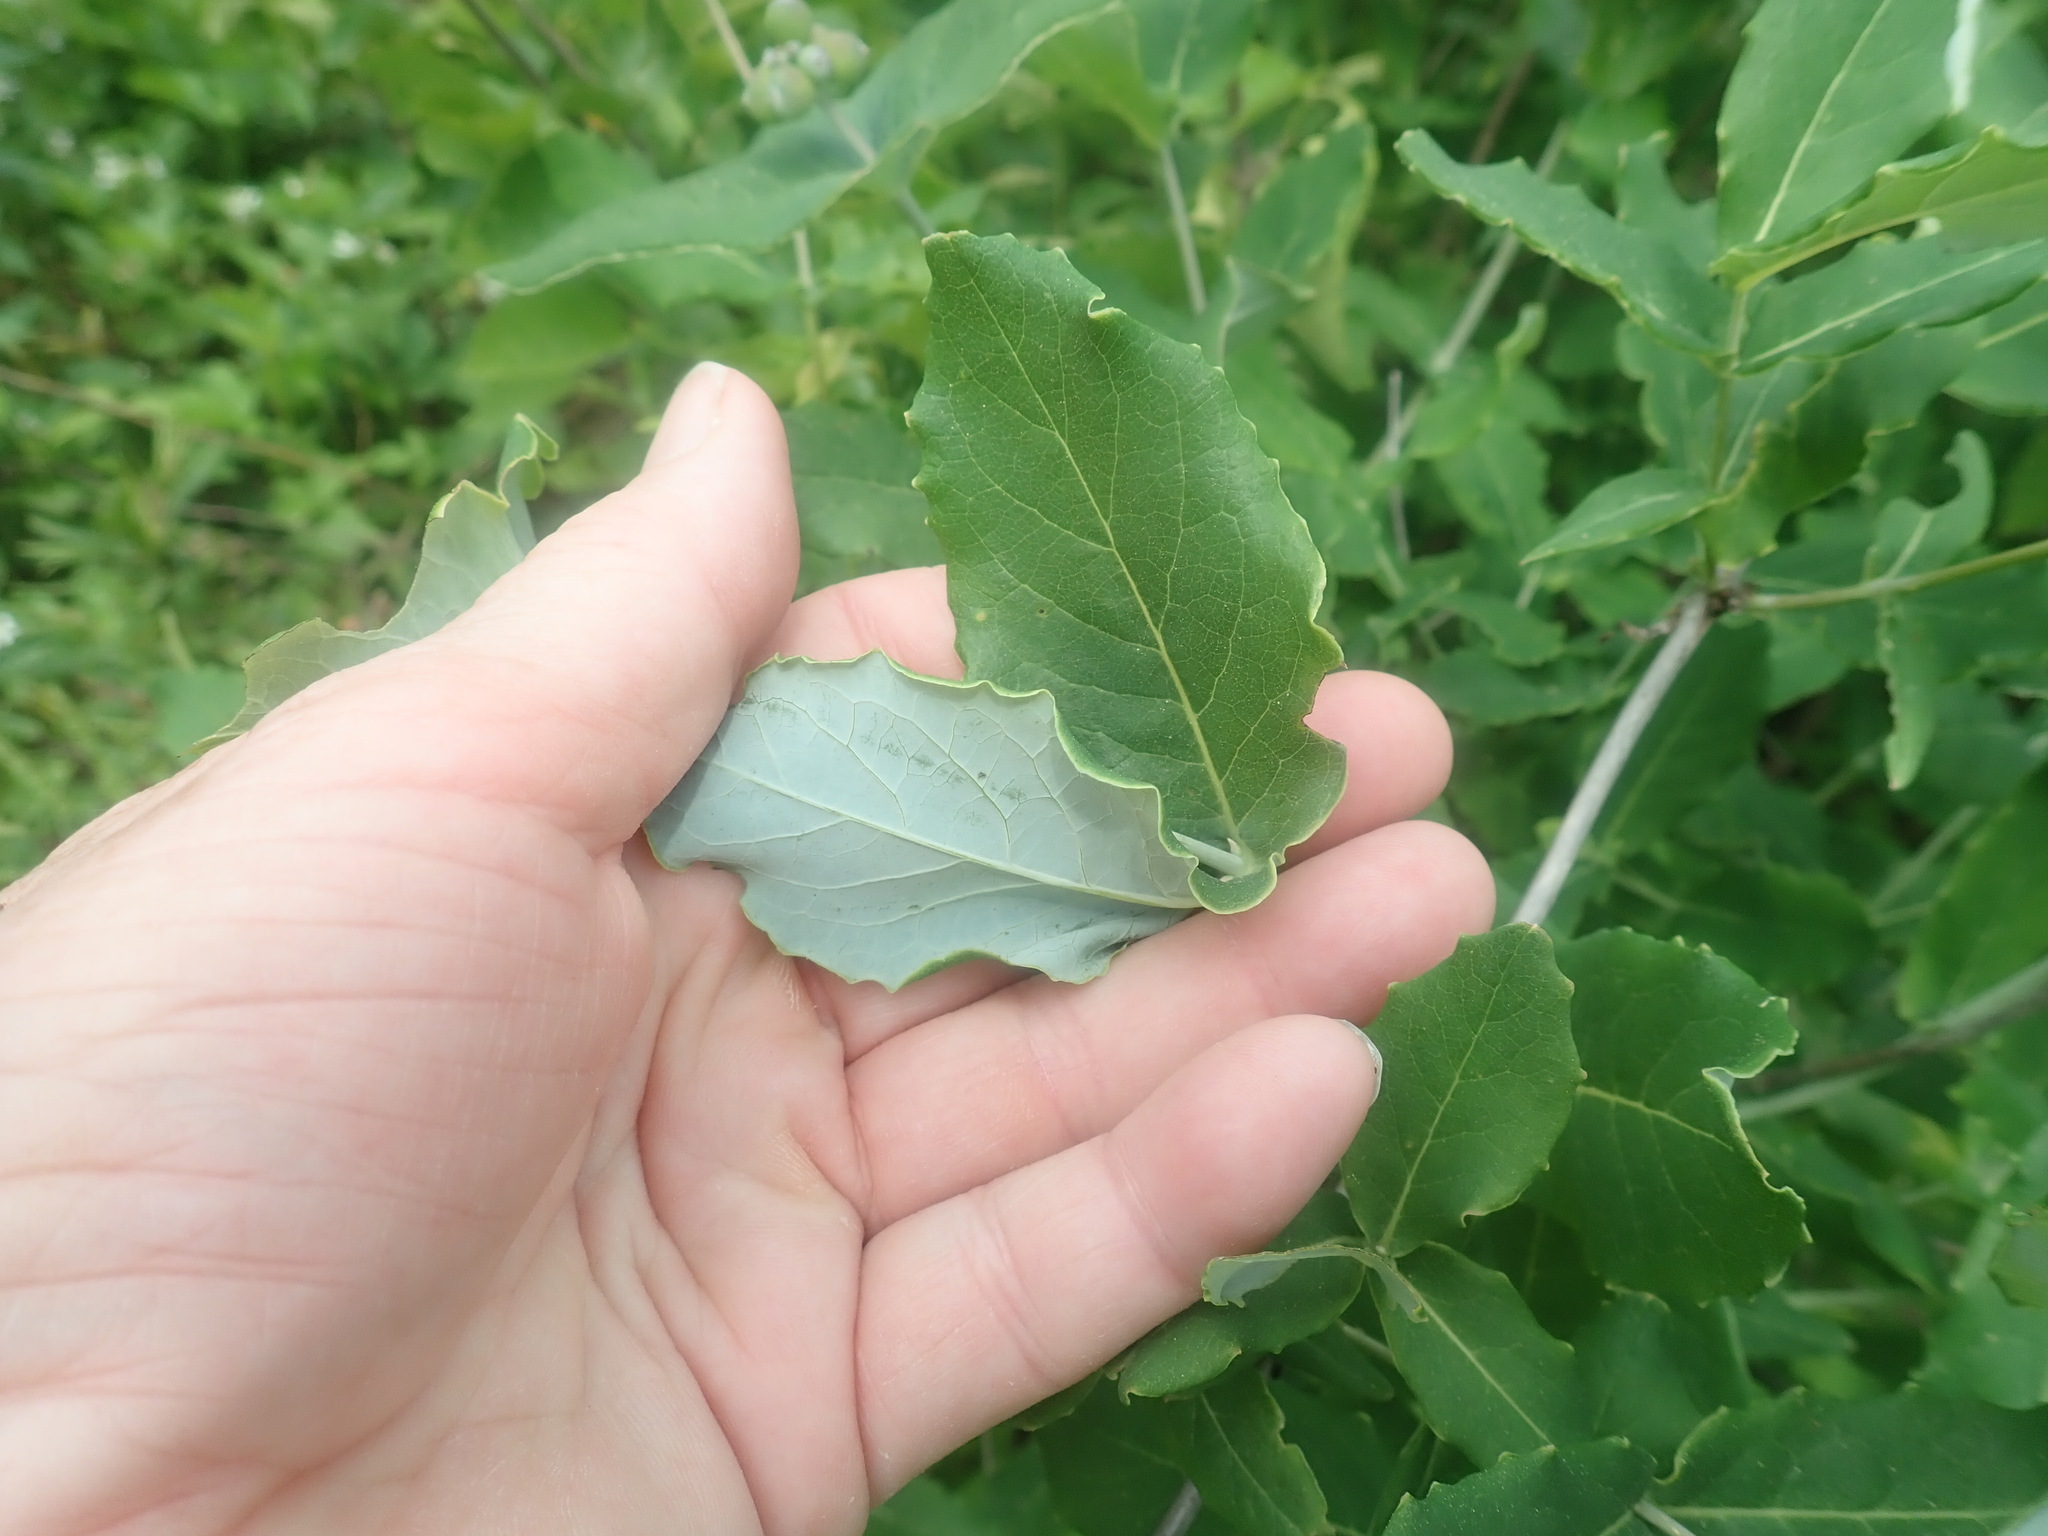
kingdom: Plantae
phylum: Tracheophyta
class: Magnoliopsida
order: Dipsacales
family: Caprifoliaceae
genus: Lonicera
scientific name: Lonicera dioica
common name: Limber honeysuckle
